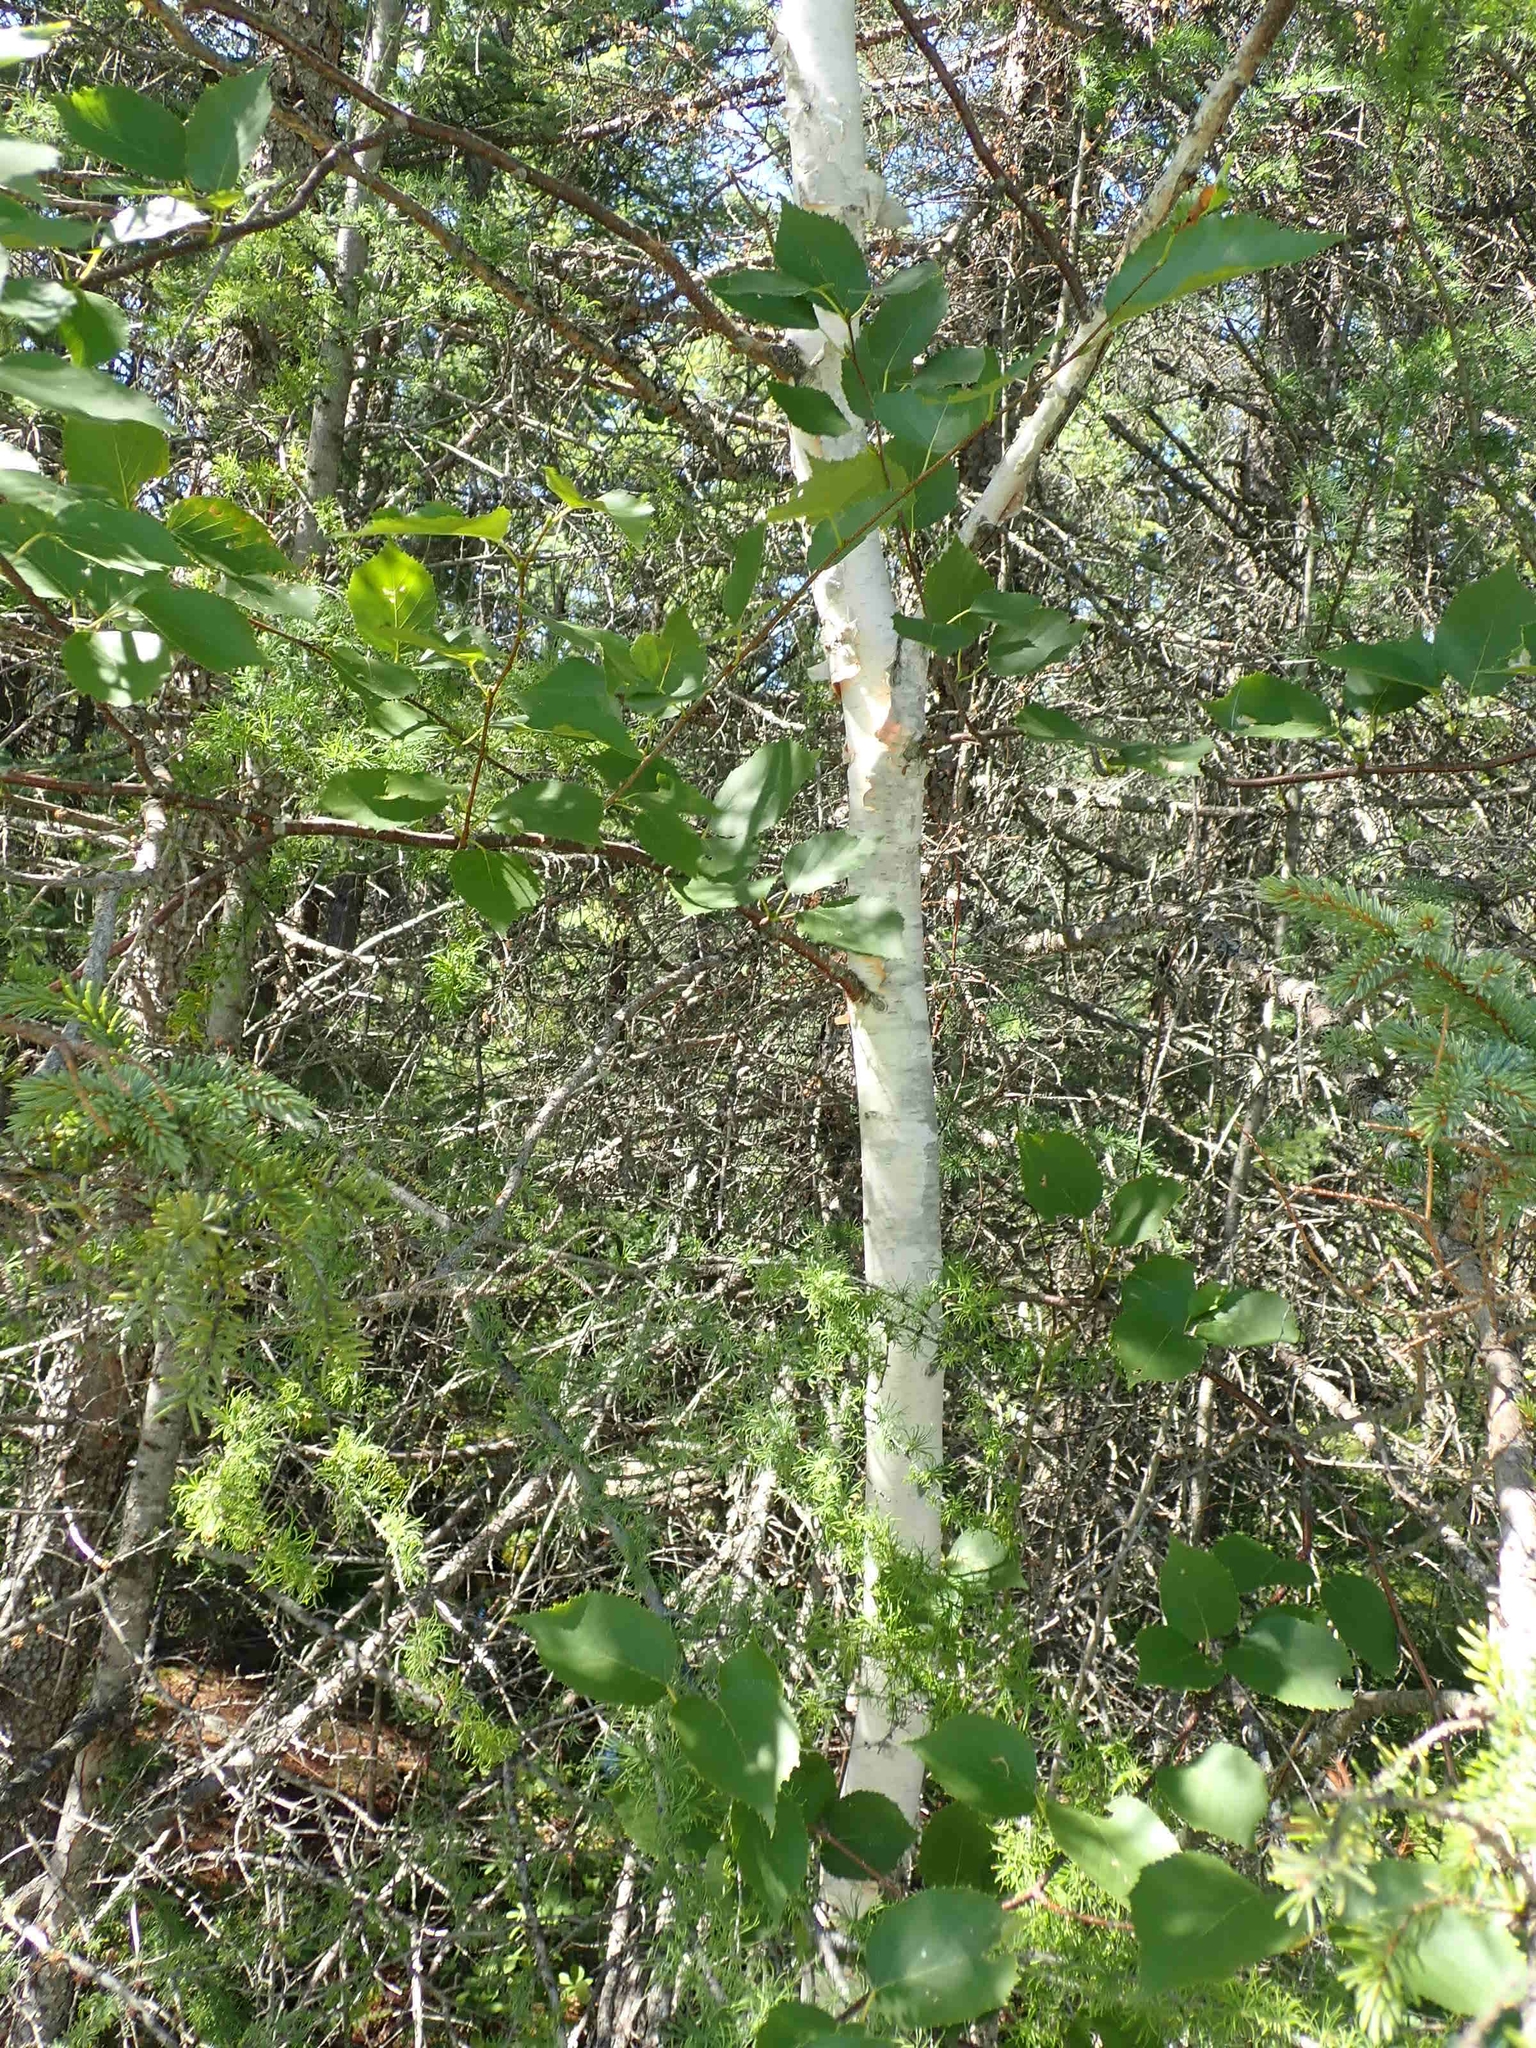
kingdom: Plantae
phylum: Tracheophyta
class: Magnoliopsida
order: Fagales
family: Betulaceae
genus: Betula
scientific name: Betula papyrifera
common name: Paper birch
